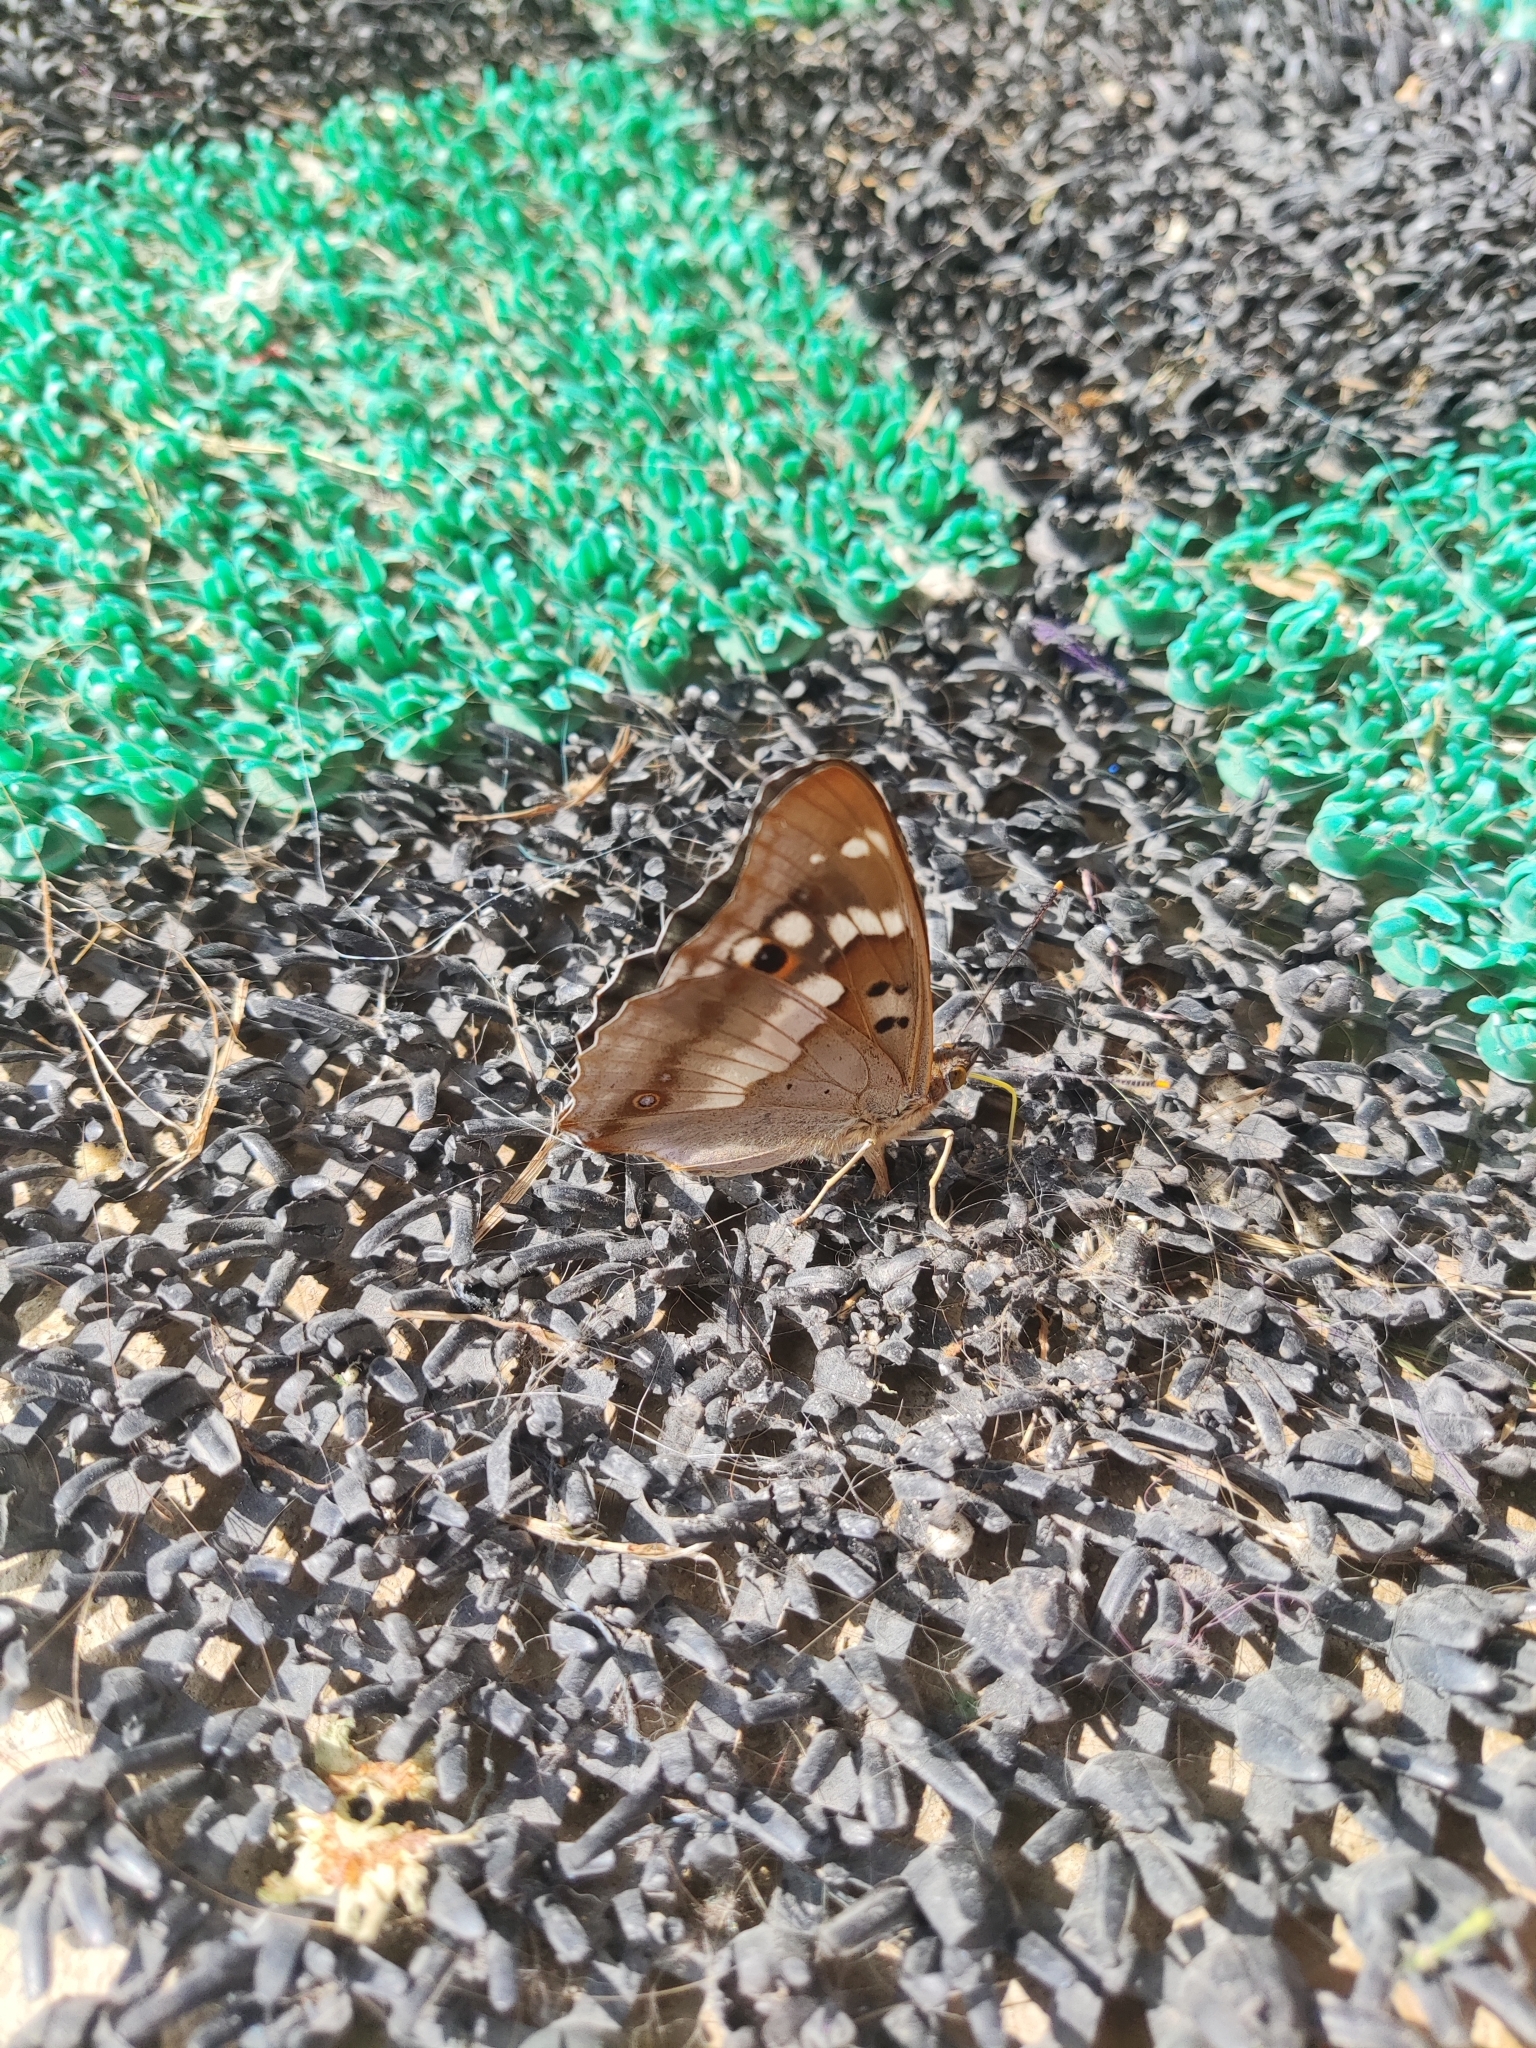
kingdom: Animalia
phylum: Arthropoda
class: Insecta
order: Lepidoptera
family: Nymphalidae
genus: Apatura
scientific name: Apatura ilia
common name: Lesser purple emperor
